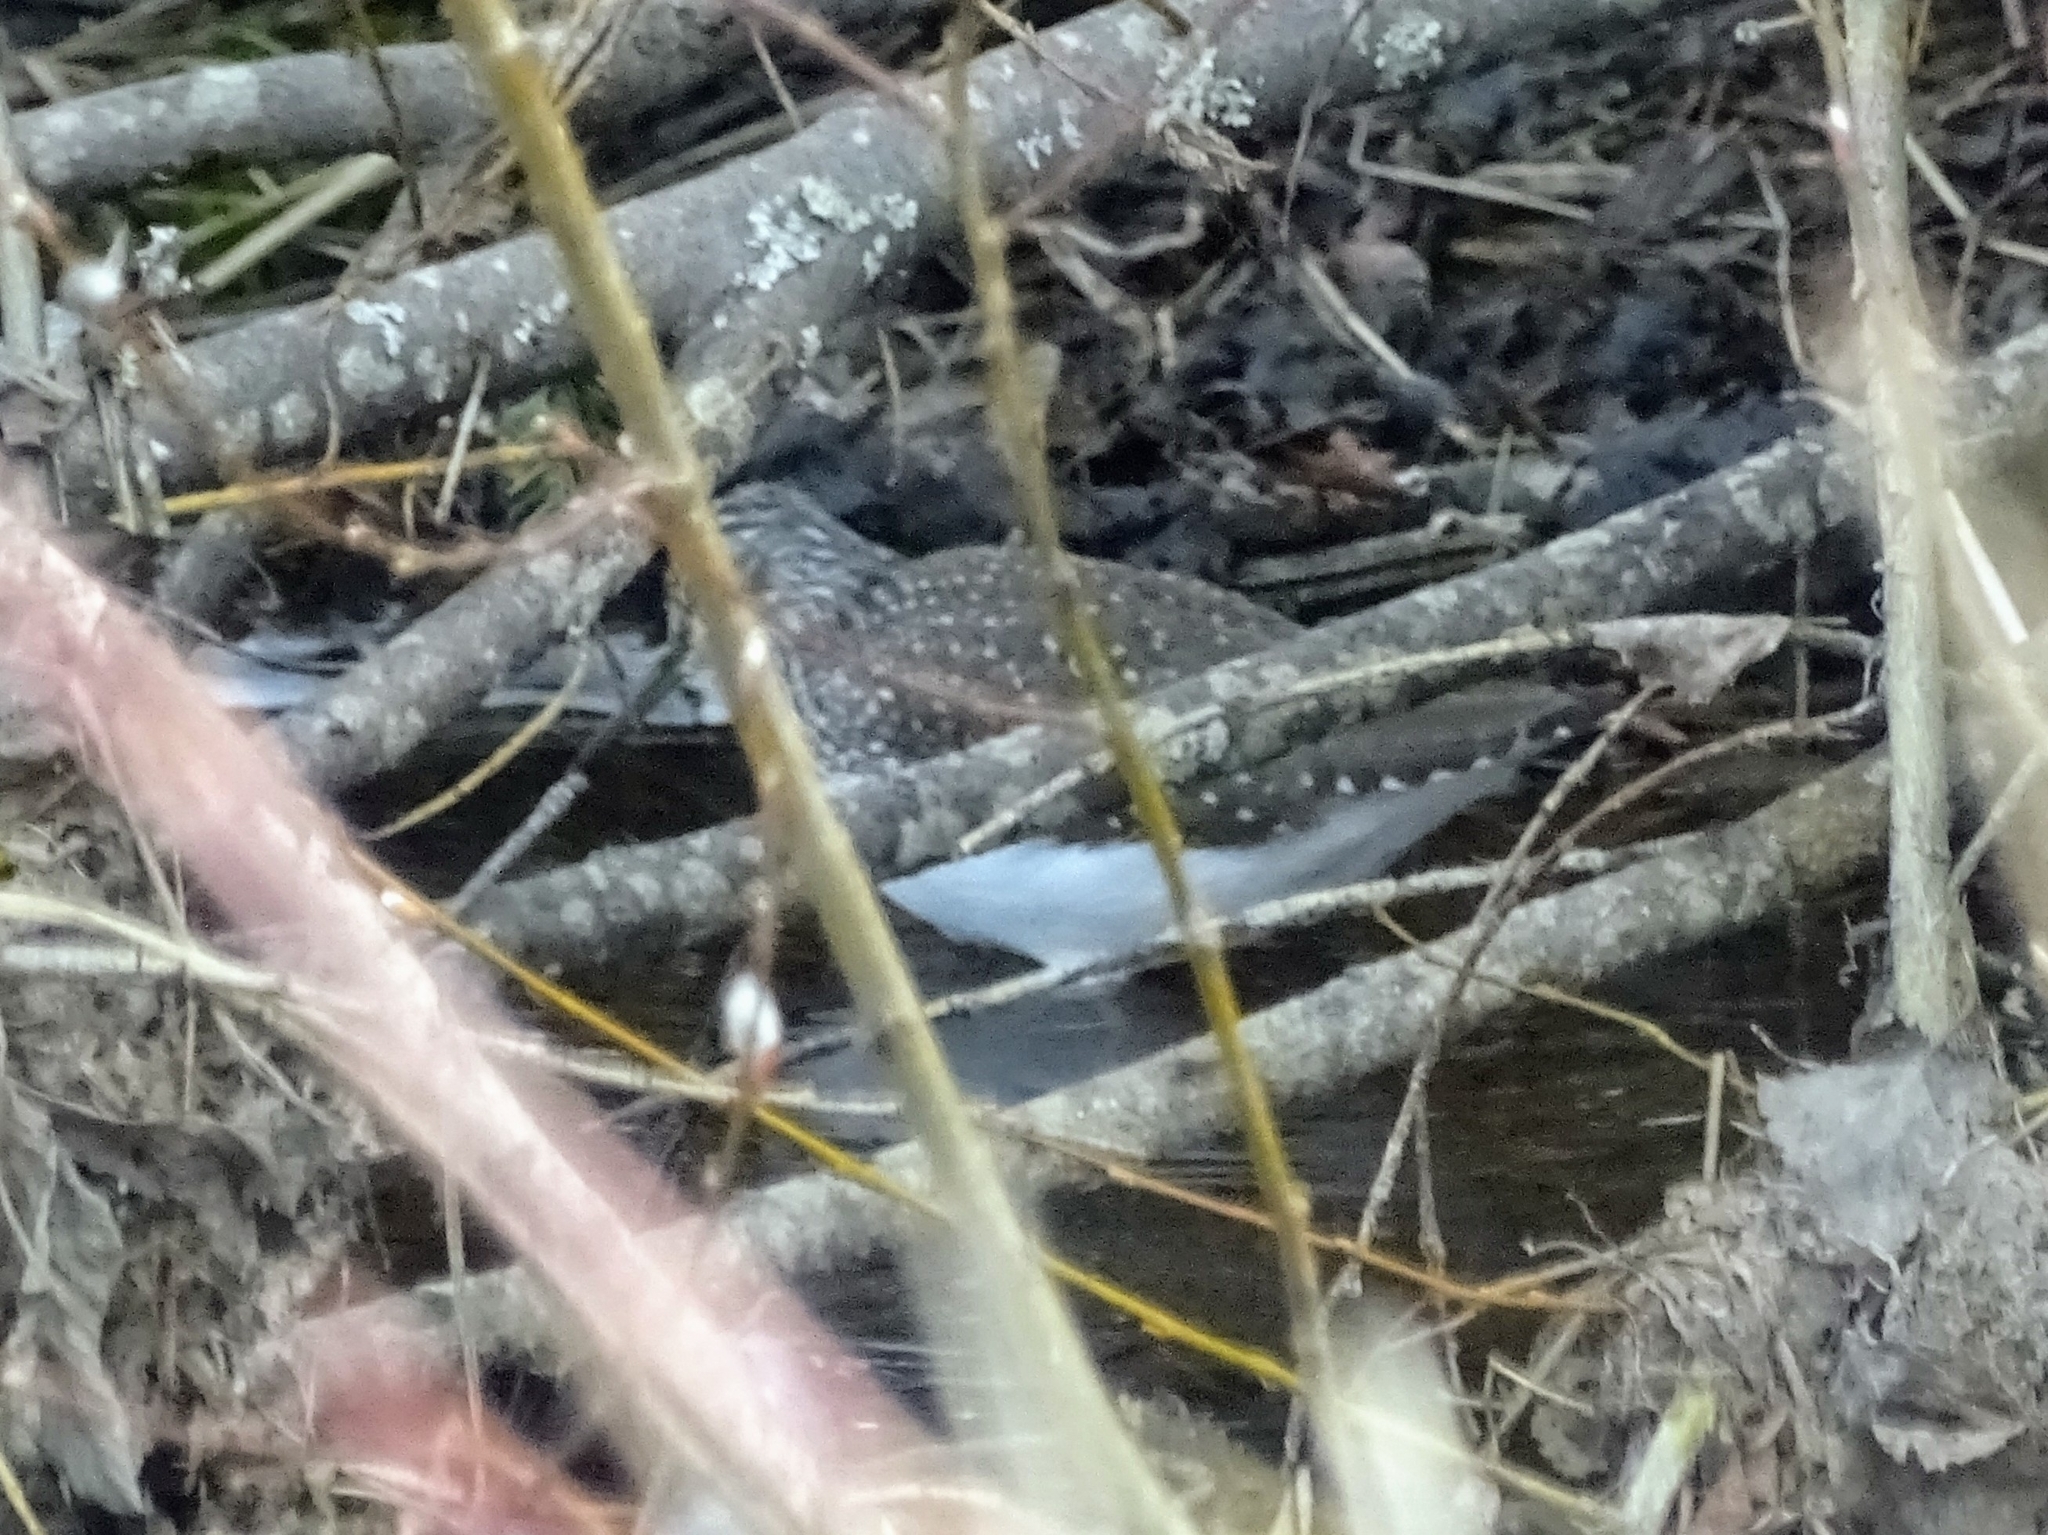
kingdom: Animalia
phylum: Chordata
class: Aves
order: Charadriiformes
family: Scolopacidae
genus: Tringa
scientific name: Tringa ochropus
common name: Green sandpiper
